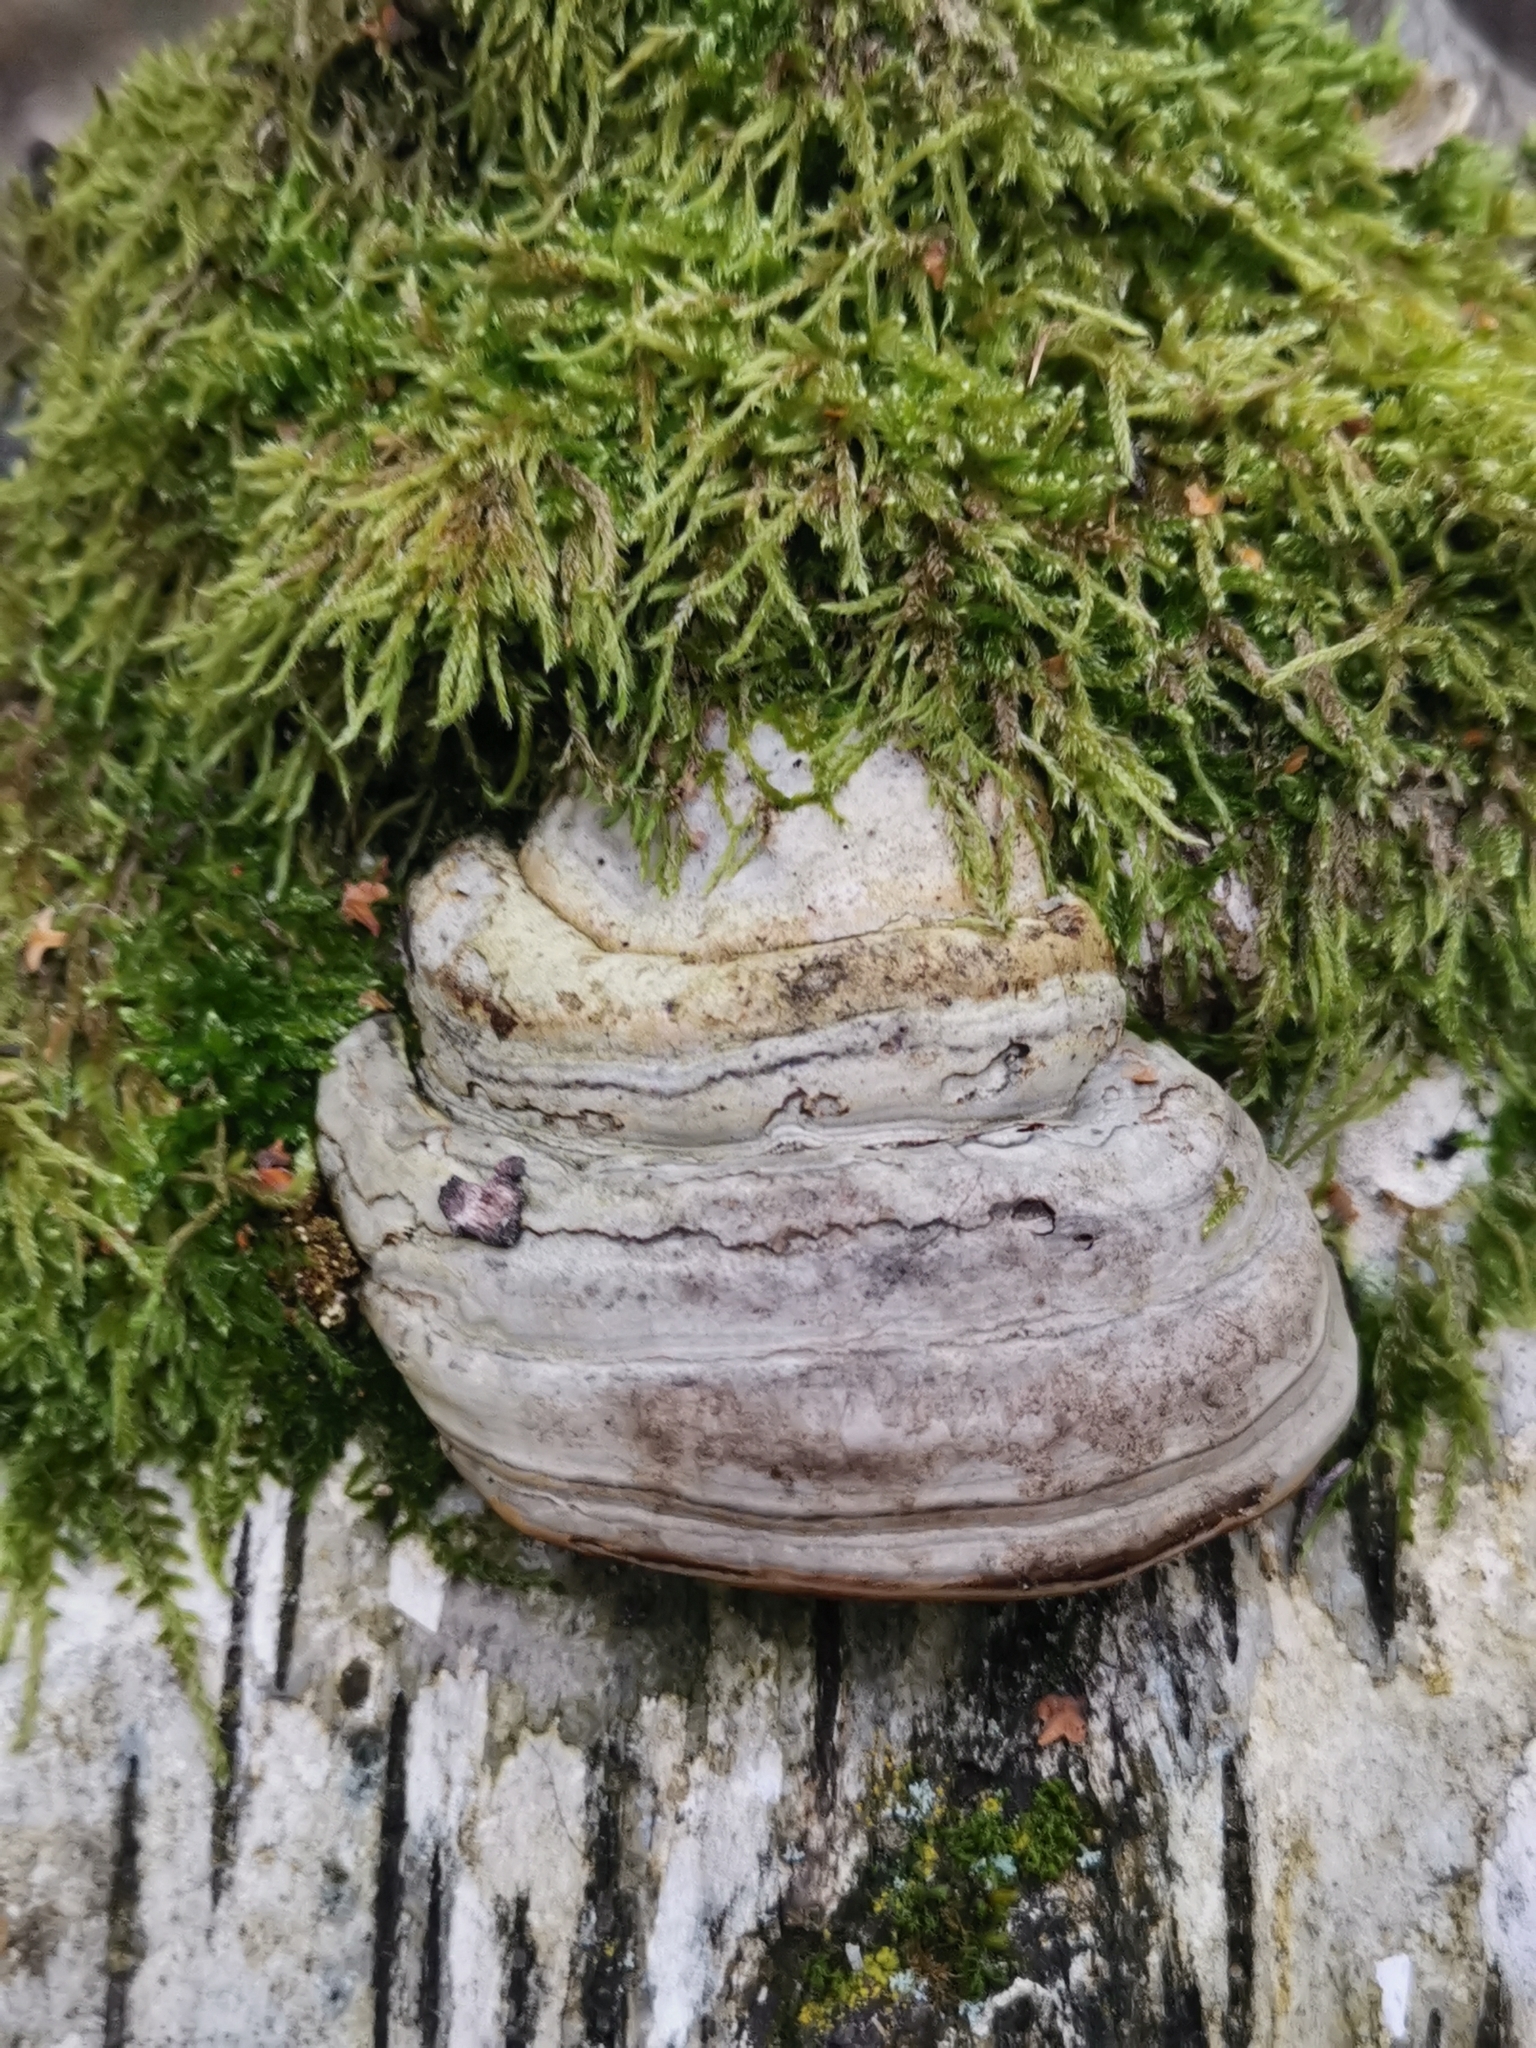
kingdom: Fungi
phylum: Basidiomycota
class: Agaricomycetes
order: Polyporales
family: Polyporaceae
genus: Fomes
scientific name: Fomes fomentarius
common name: Hoof fungus
